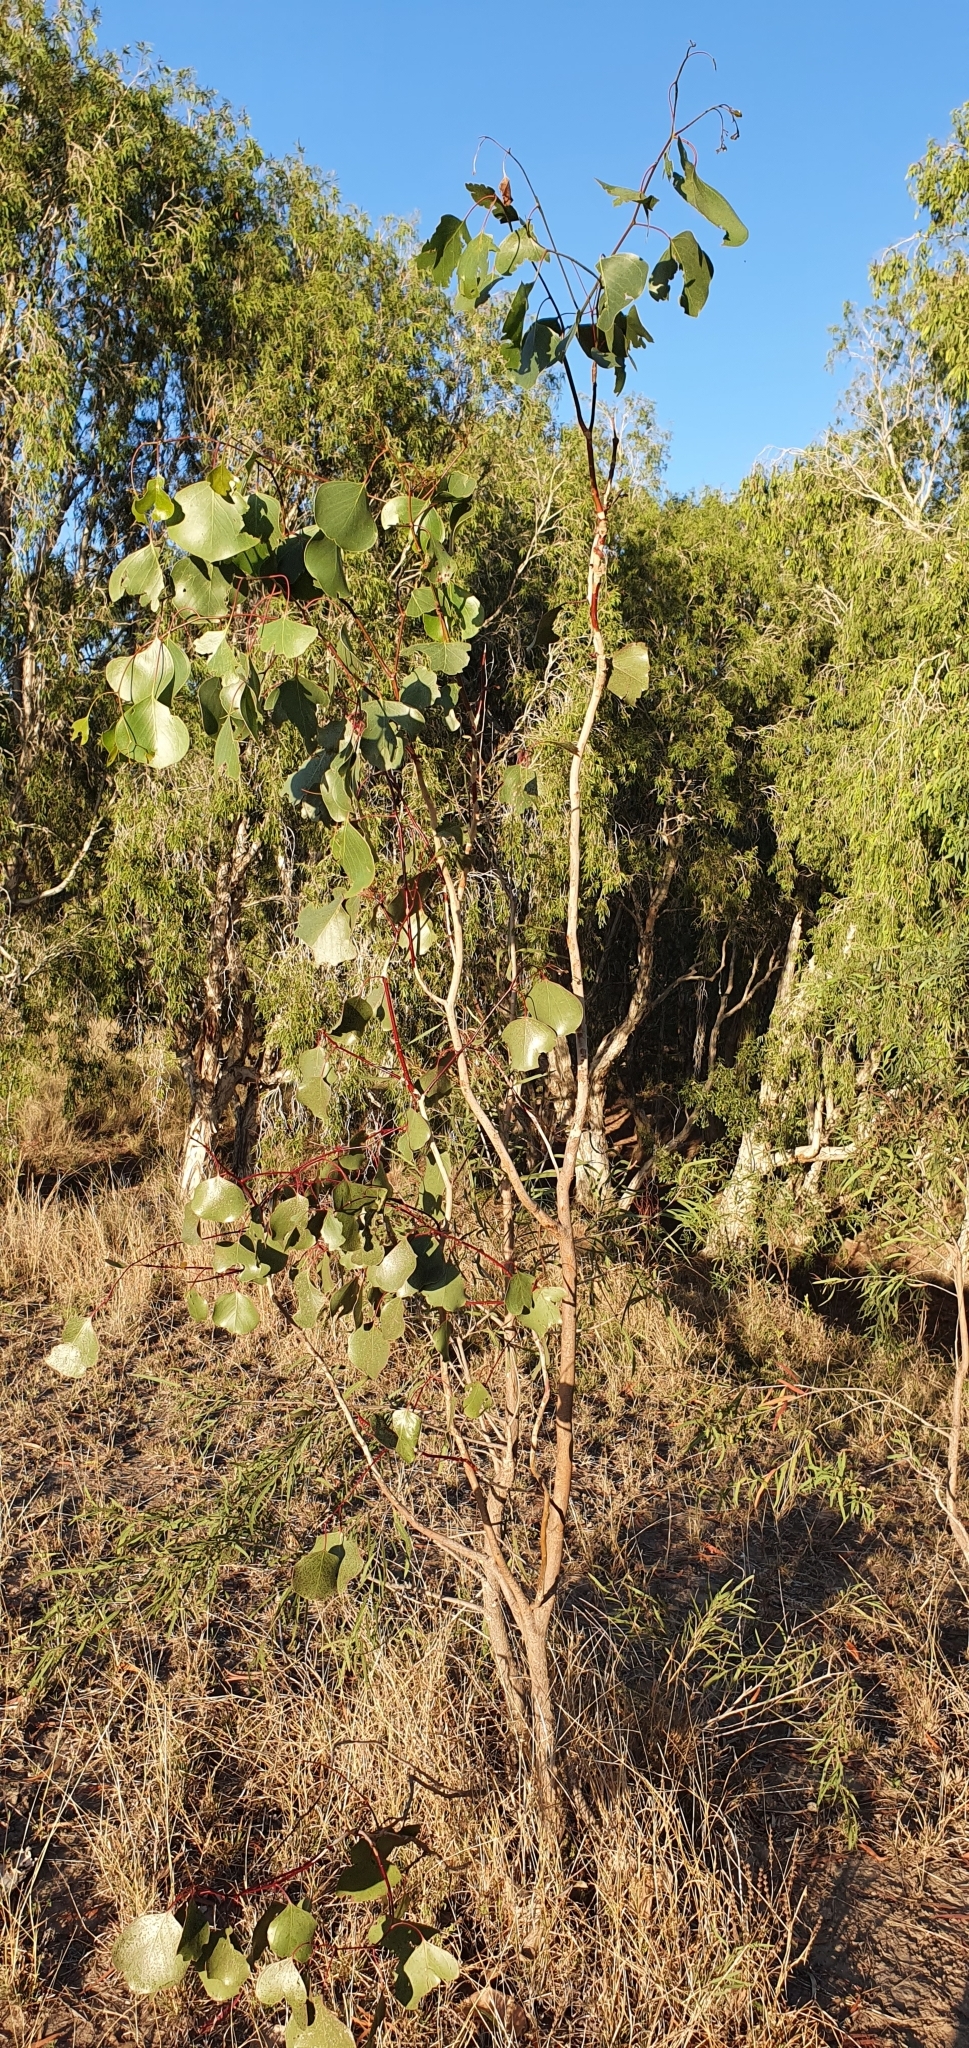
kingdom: Plantae
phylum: Tracheophyta
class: Magnoliopsida
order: Myrtales
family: Myrtaceae
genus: Eucalyptus
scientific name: Eucalyptus populnea
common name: Bimble box
